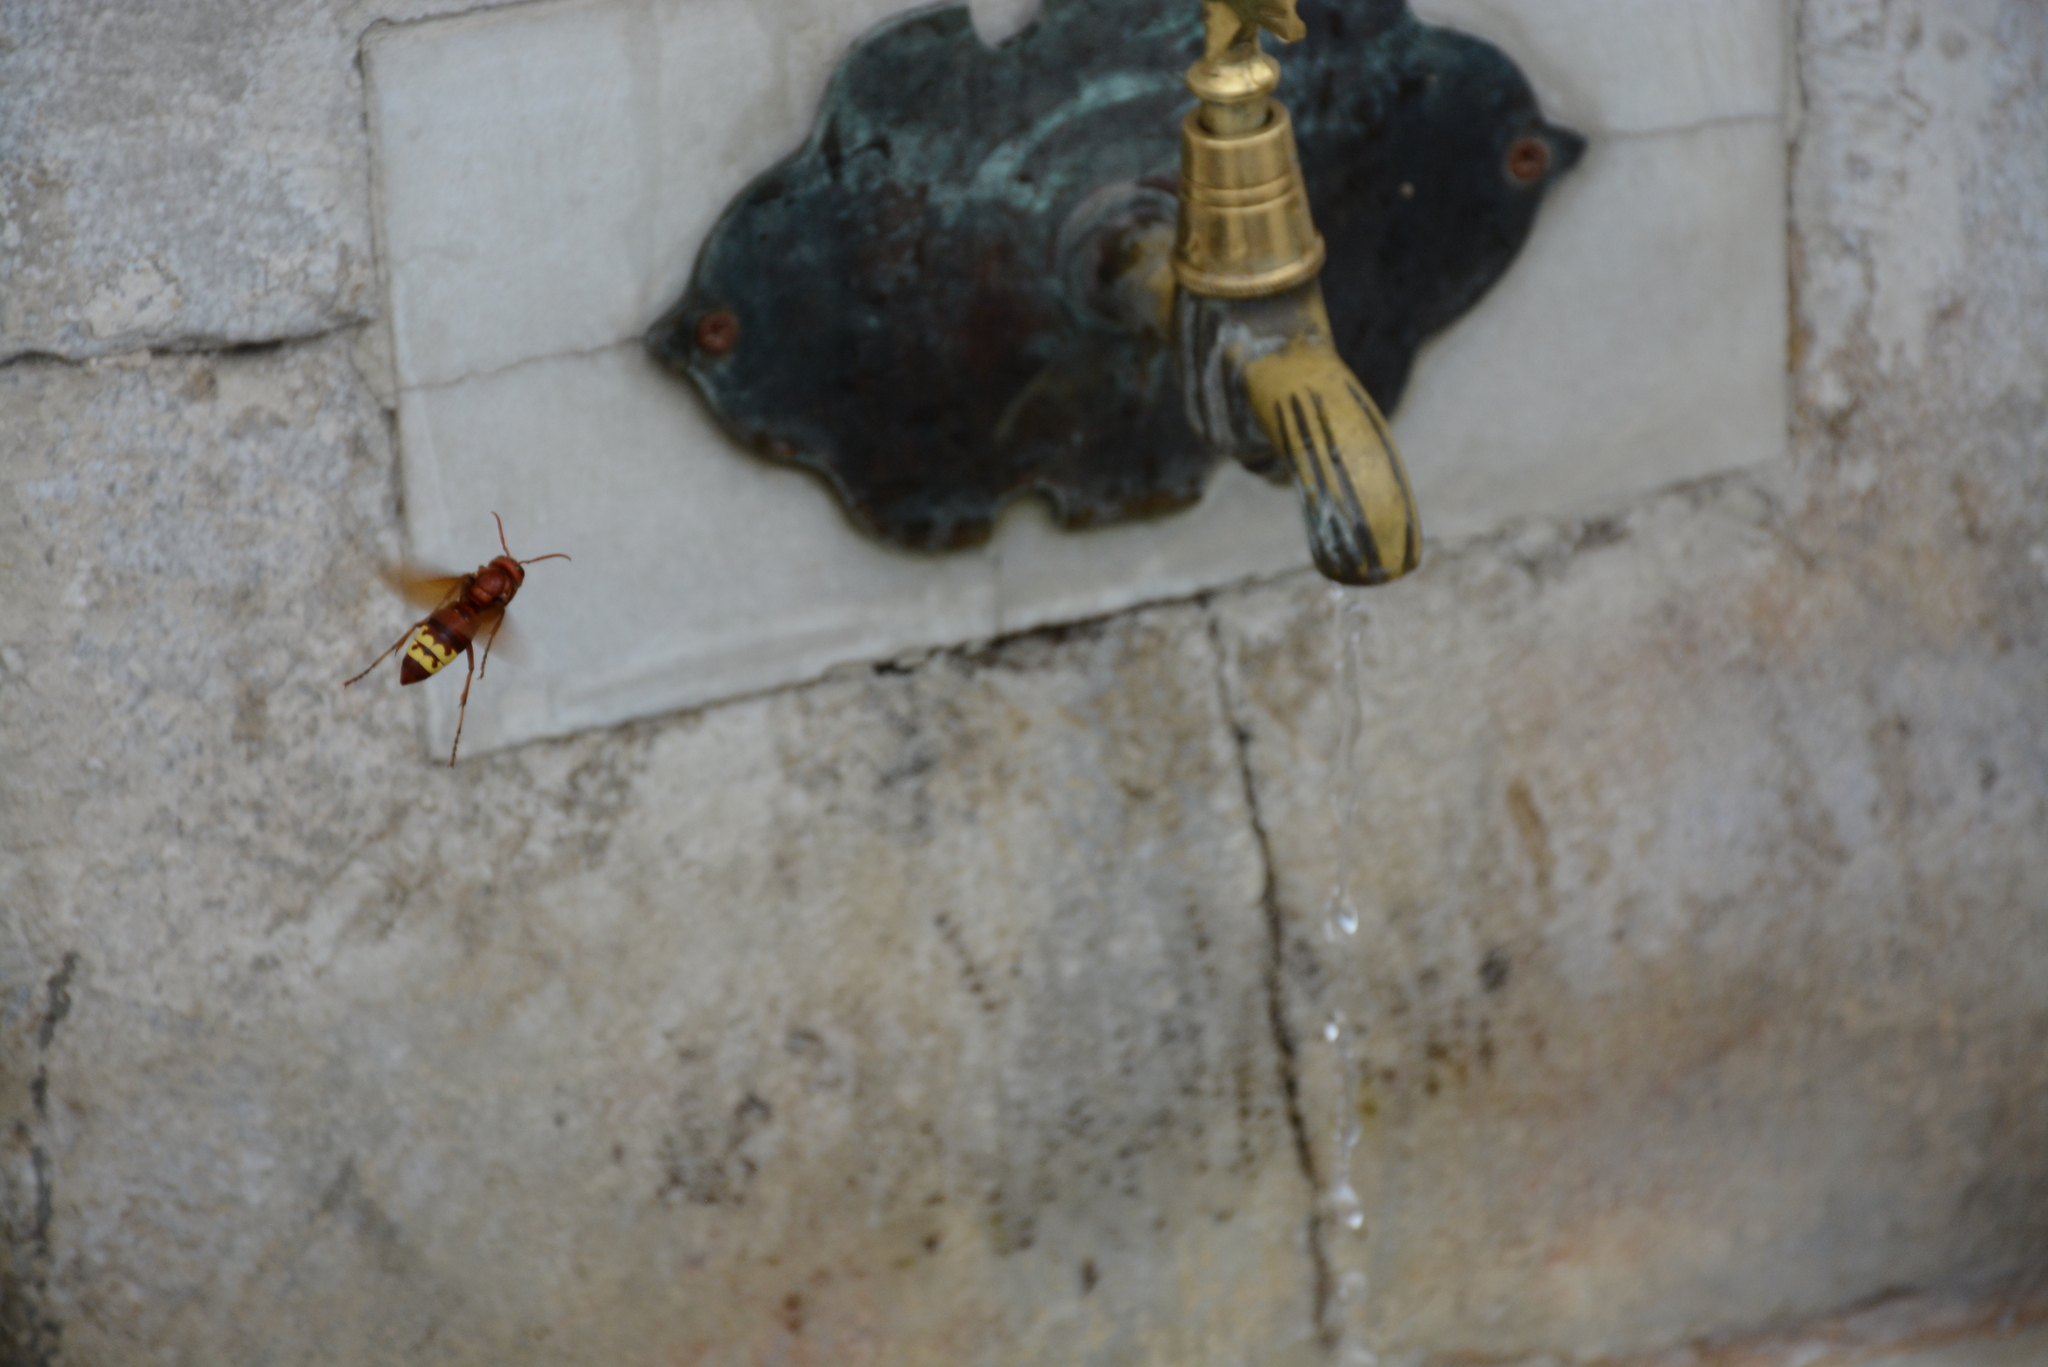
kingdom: Animalia
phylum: Arthropoda
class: Insecta
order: Hymenoptera
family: Vespidae
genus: Vespa
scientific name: Vespa orientalis
